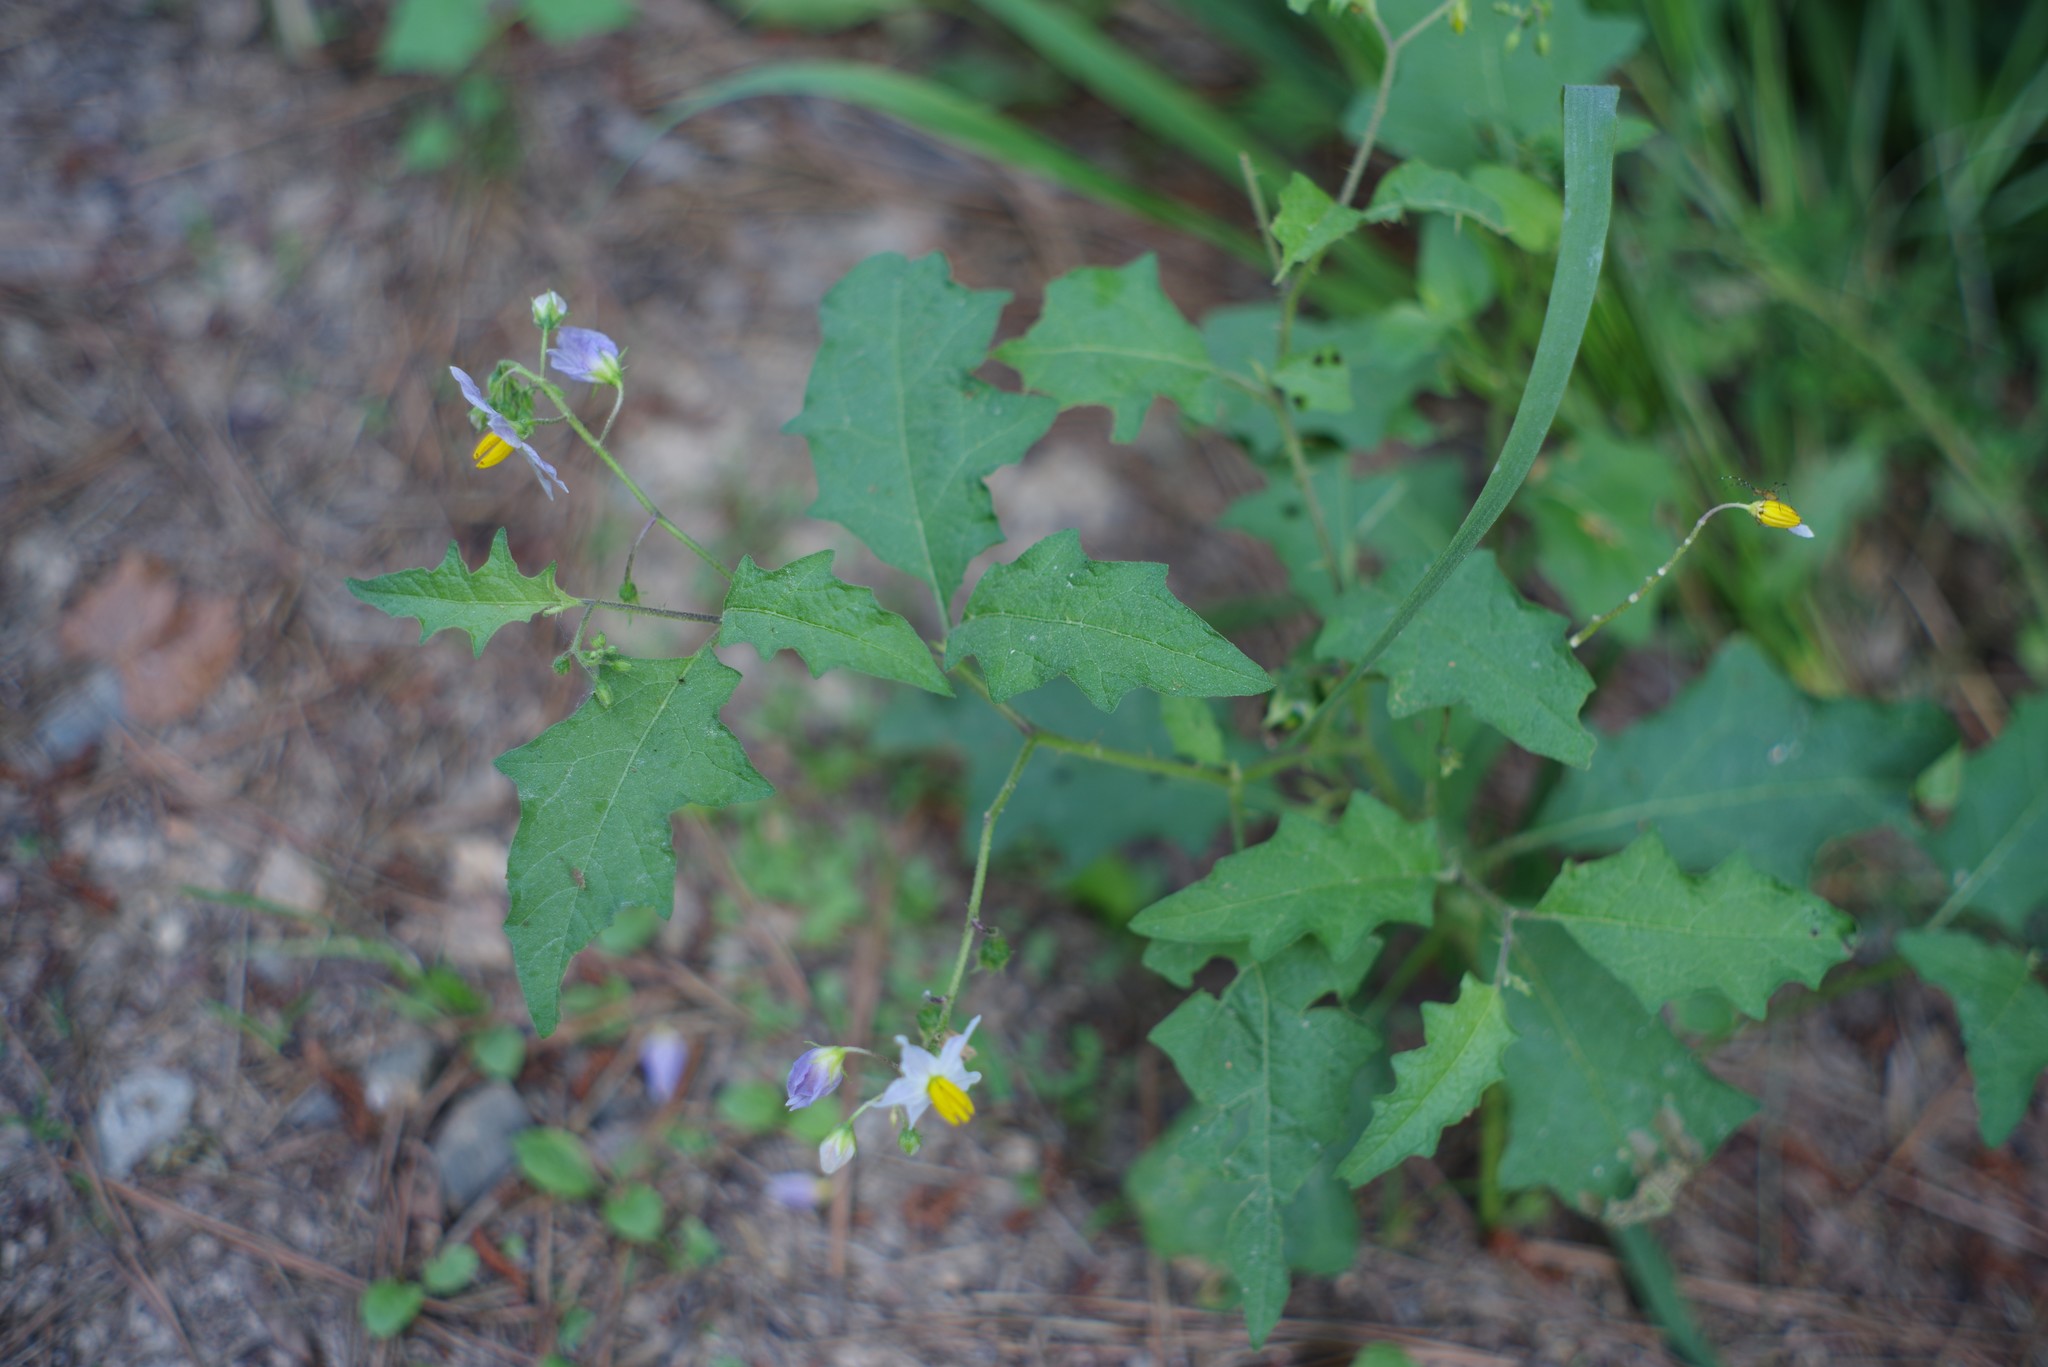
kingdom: Plantae
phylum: Tracheophyta
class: Magnoliopsida
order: Solanales
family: Solanaceae
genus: Solanum
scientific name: Solanum carolinense
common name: Horse-nettle
